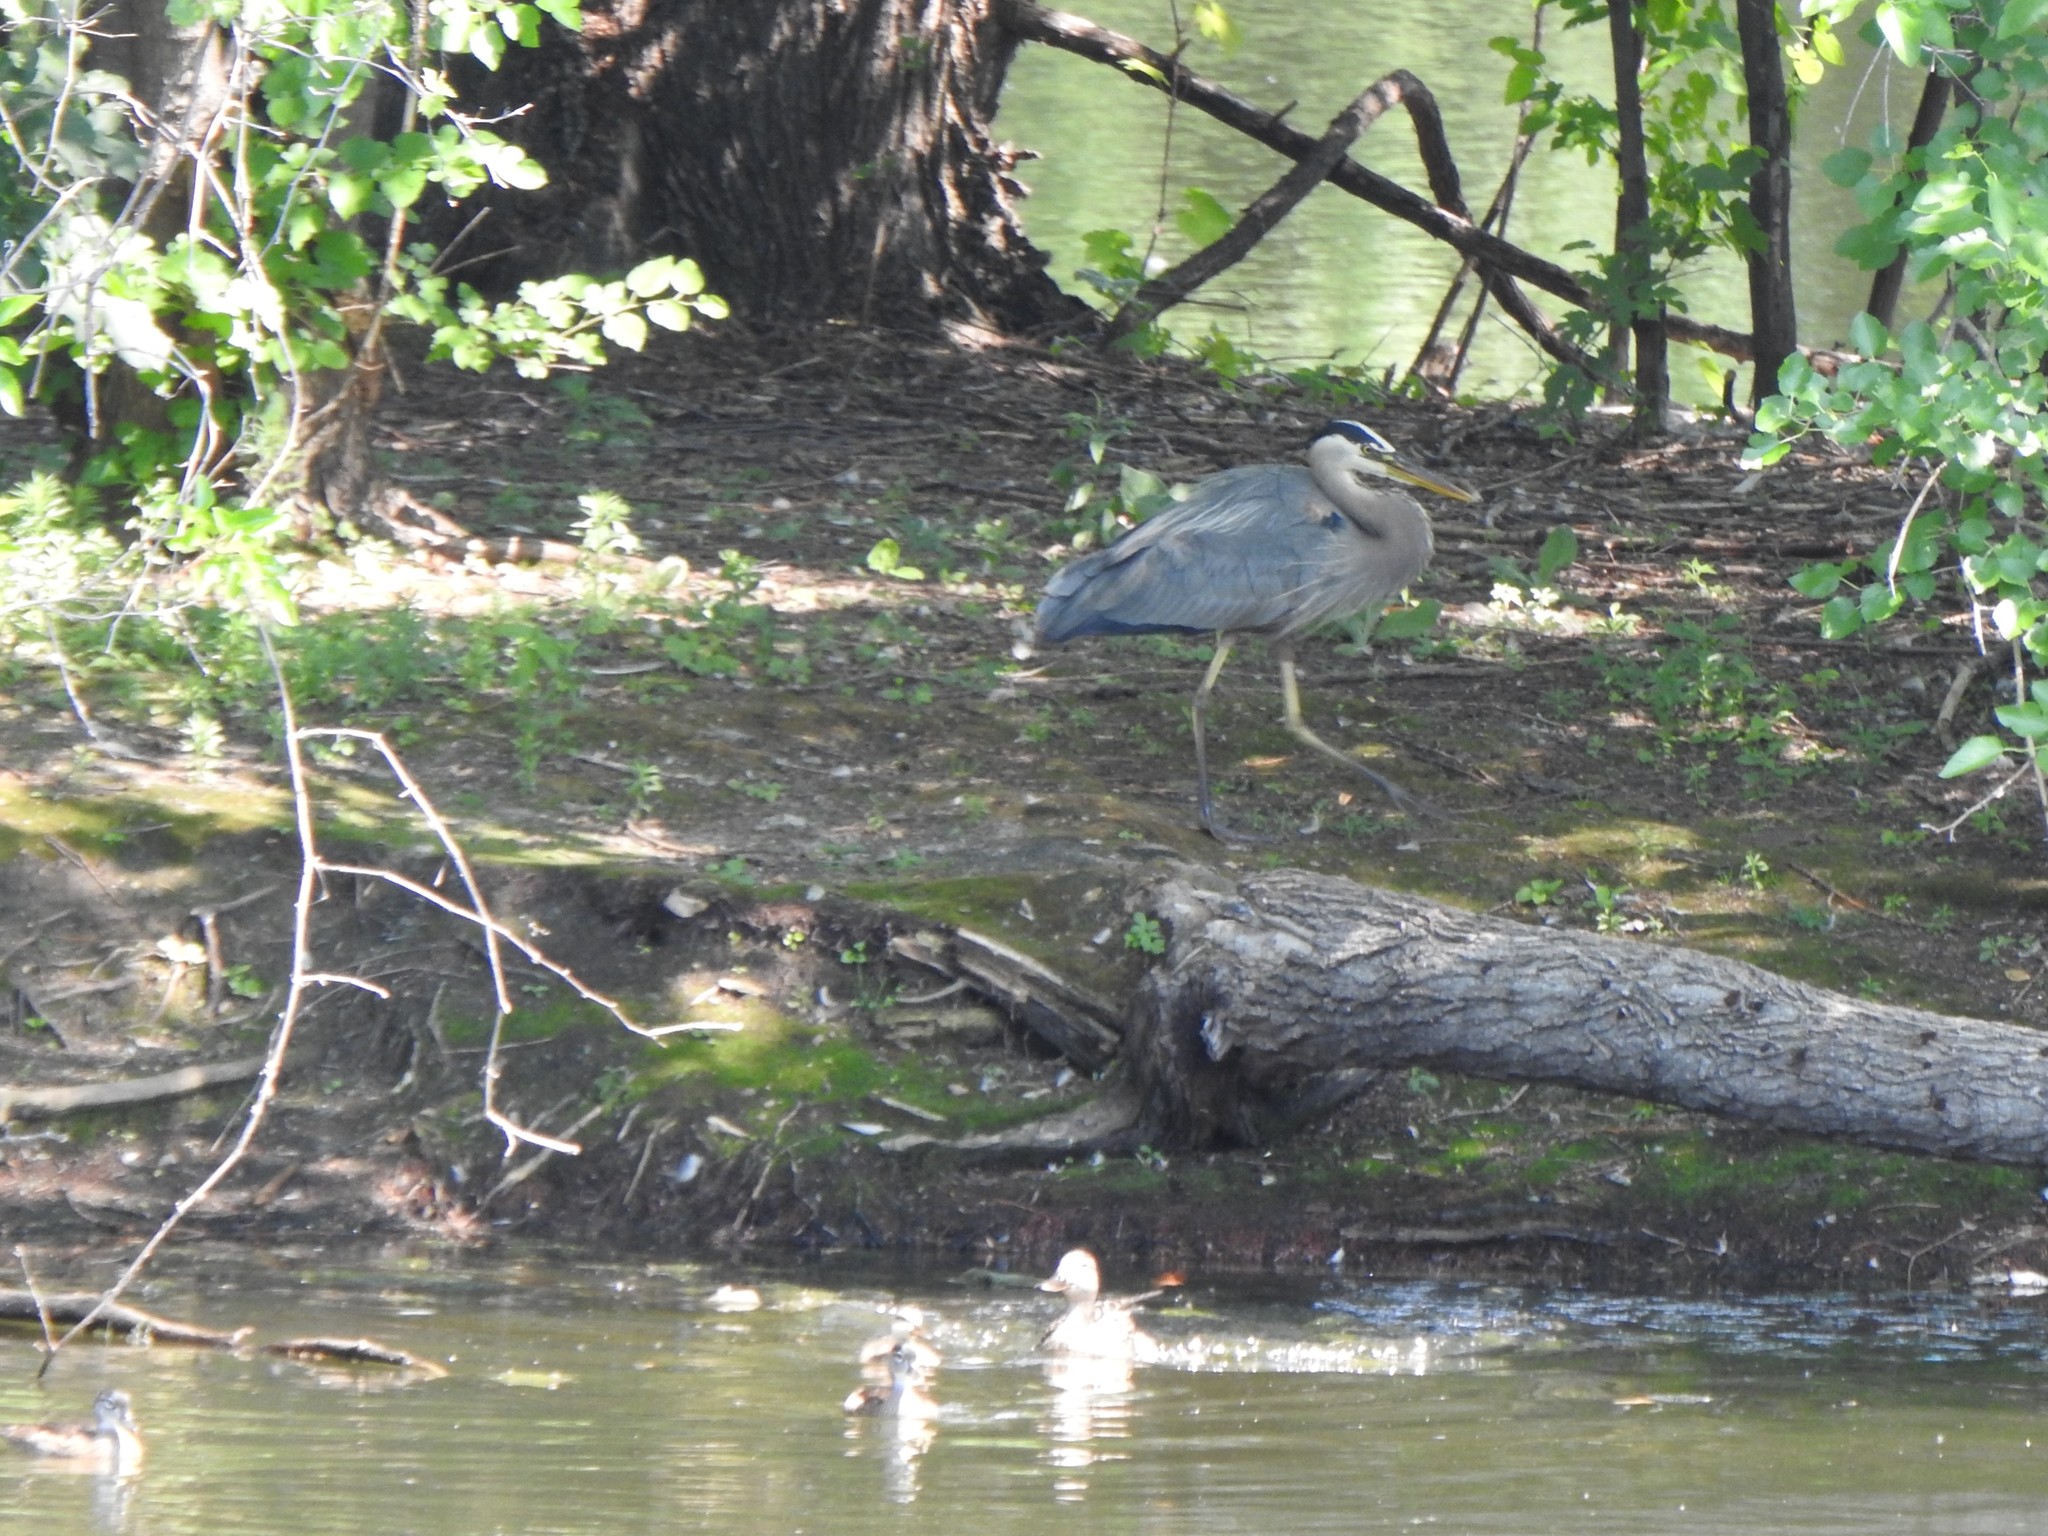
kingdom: Animalia
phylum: Chordata
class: Aves
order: Pelecaniformes
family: Ardeidae
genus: Ardea
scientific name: Ardea herodias
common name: Great blue heron
